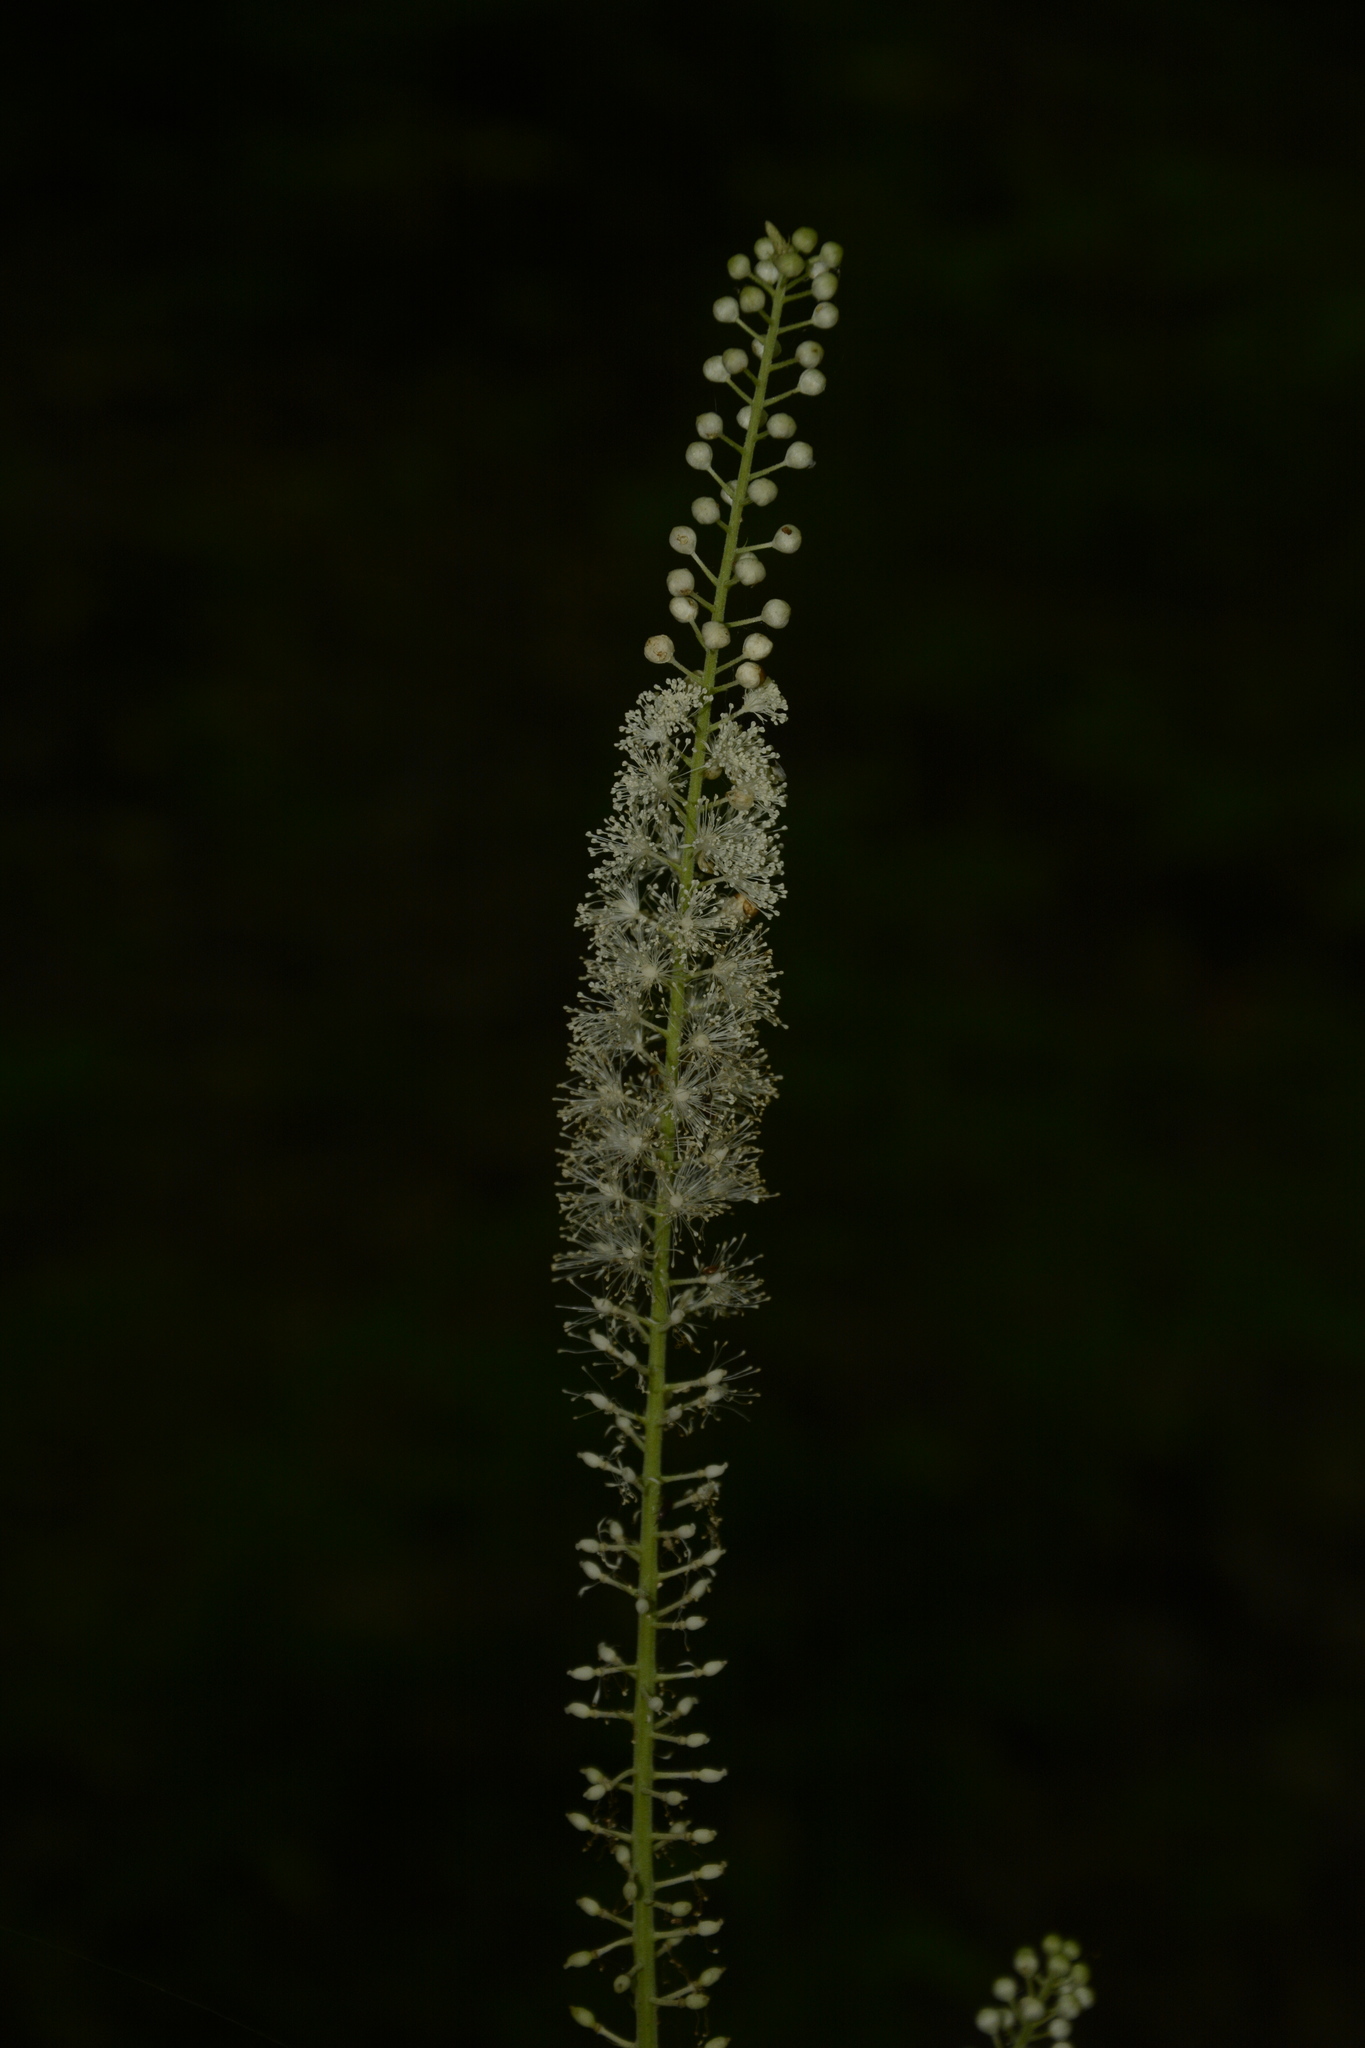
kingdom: Plantae
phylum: Tracheophyta
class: Magnoliopsida
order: Ranunculales
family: Ranunculaceae
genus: Actaea
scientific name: Actaea racemosa
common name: Black cohosh
